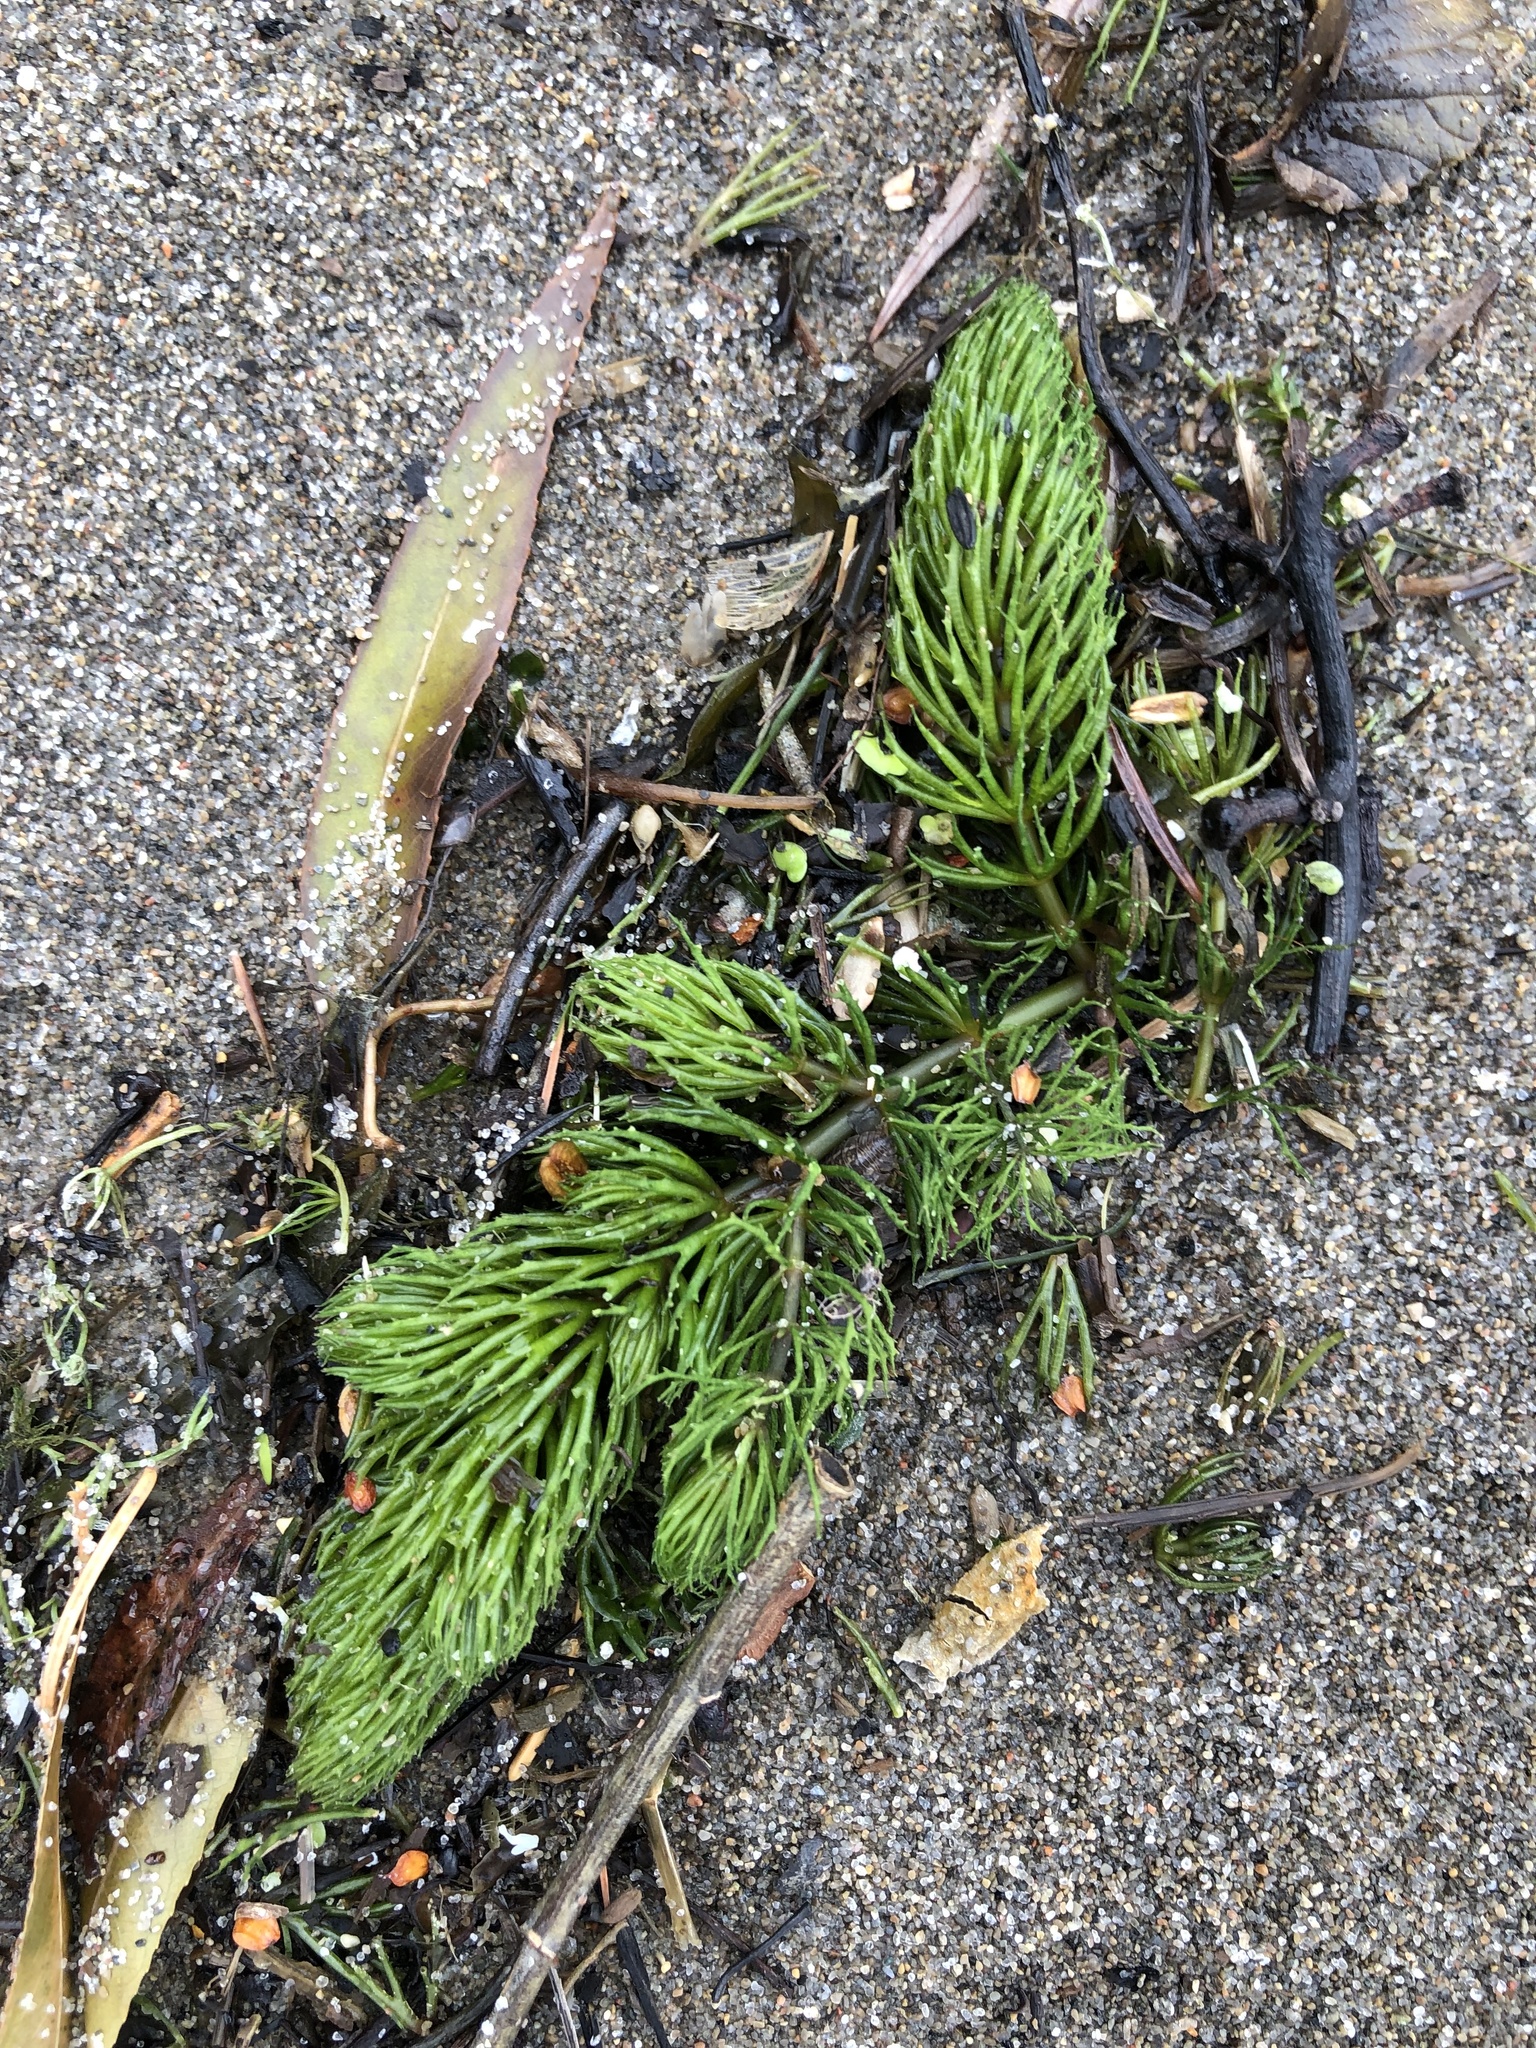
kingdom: Plantae
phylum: Tracheophyta
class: Magnoliopsida
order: Ceratophyllales
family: Ceratophyllaceae
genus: Ceratophyllum
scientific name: Ceratophyllum demersum
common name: Rigid hornwort
